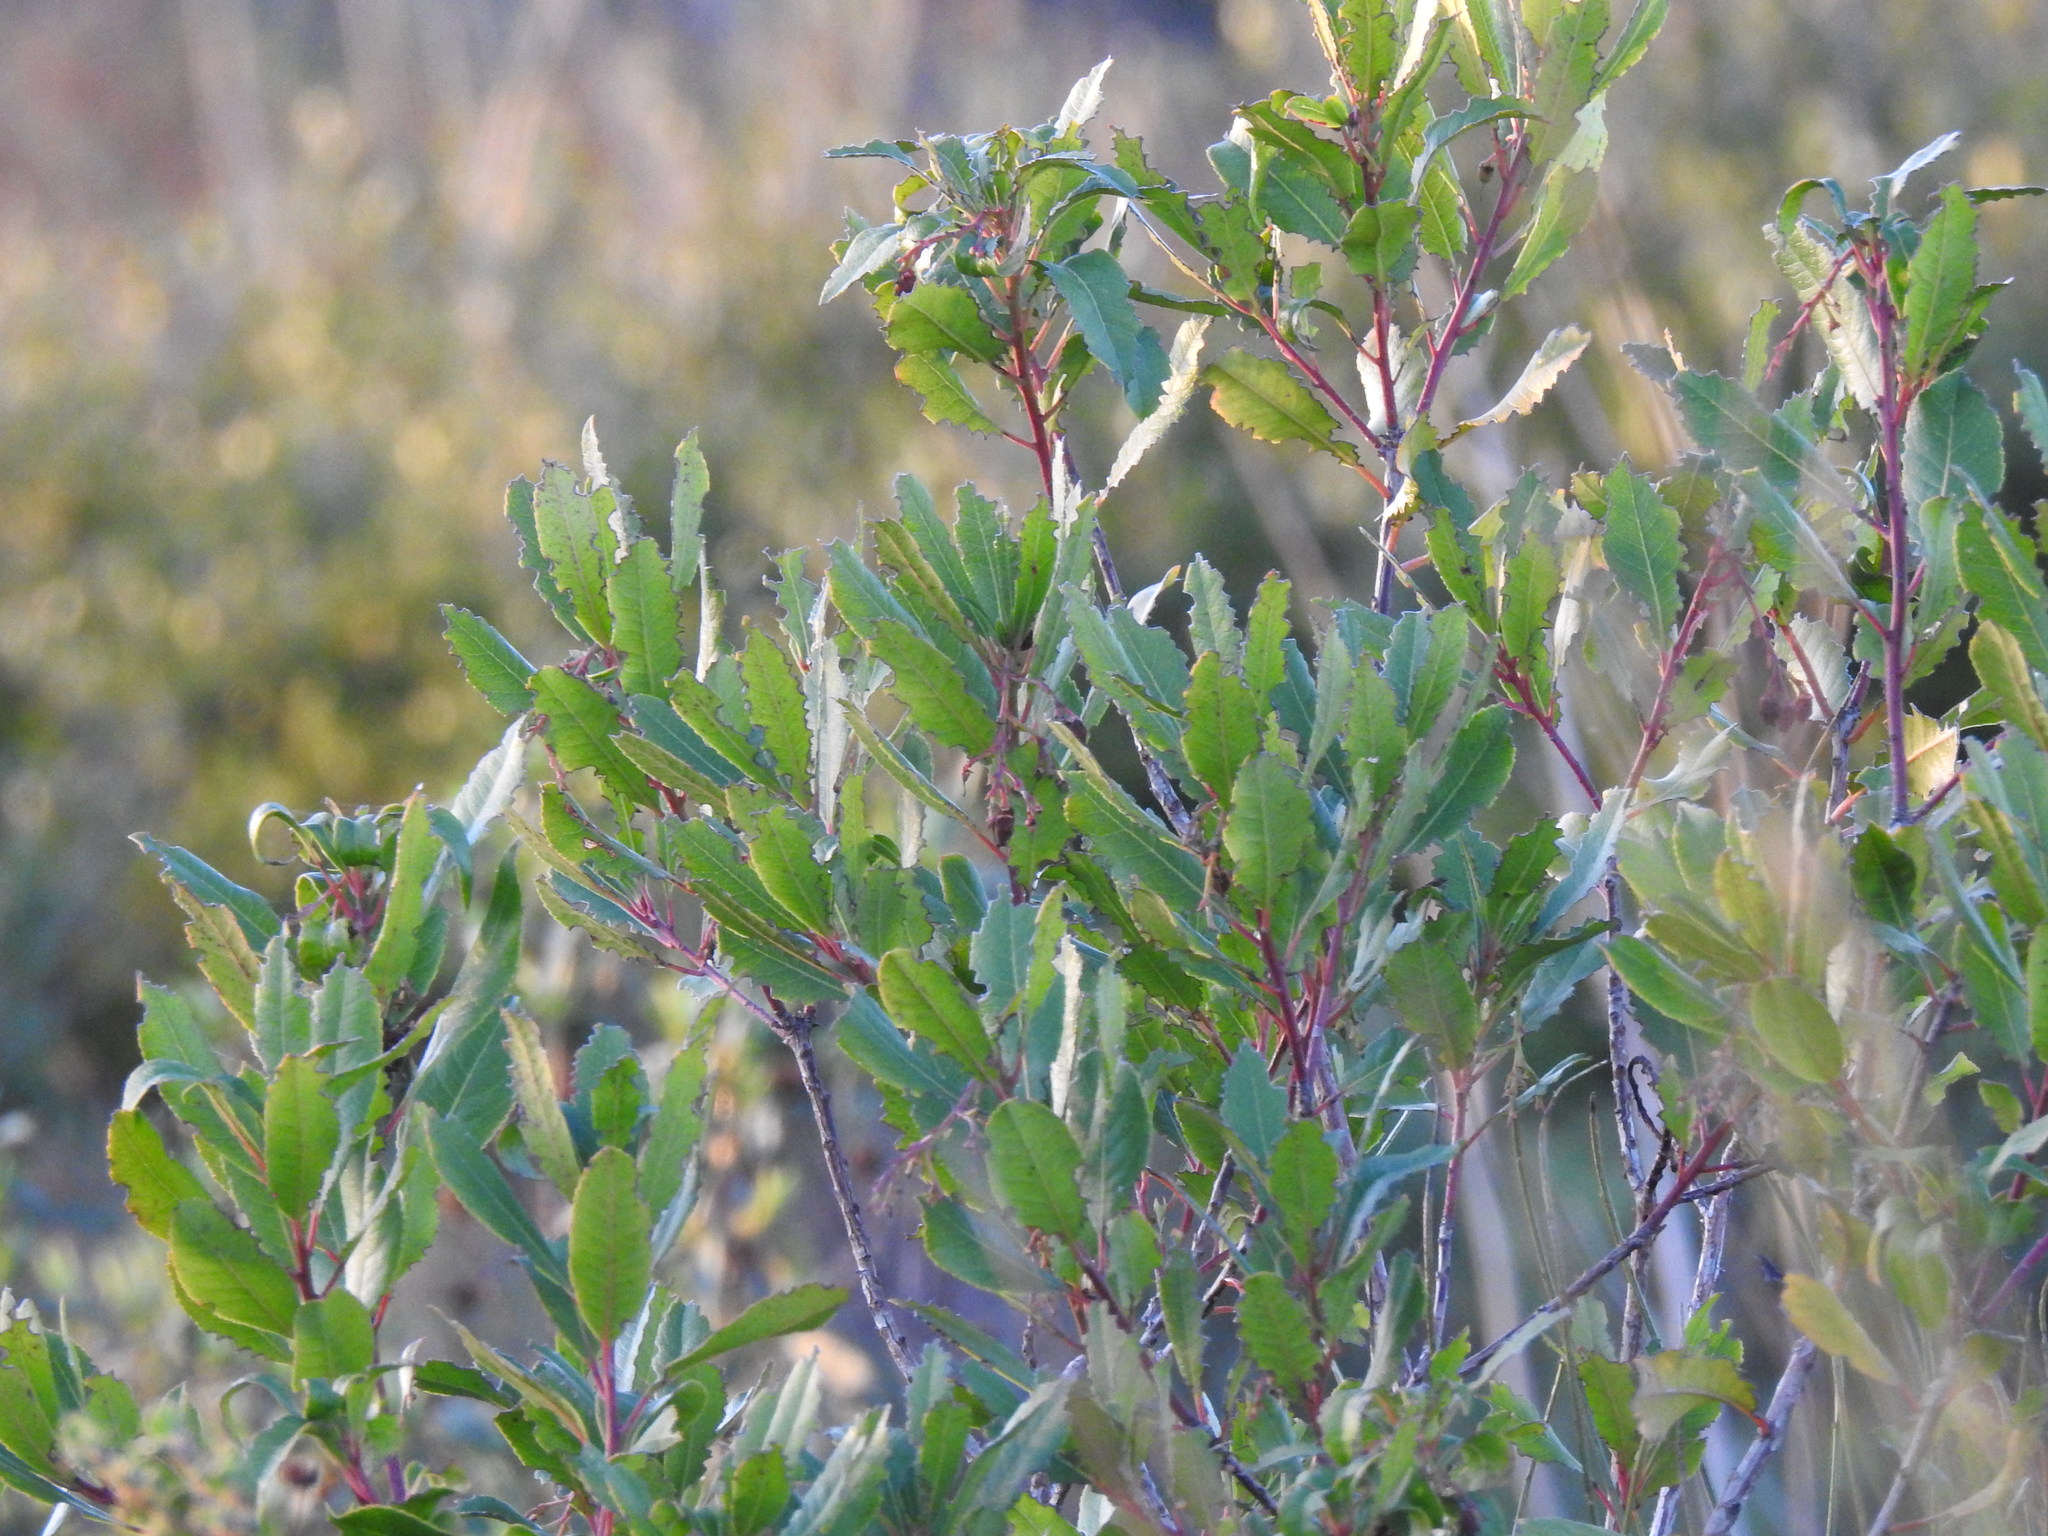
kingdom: Plantae
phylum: Tracheophyta
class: Magnoliopsida
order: Ericales
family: Ericaceae
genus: Arbutus
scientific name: Arbutus unedo
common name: Strawberry-tree
